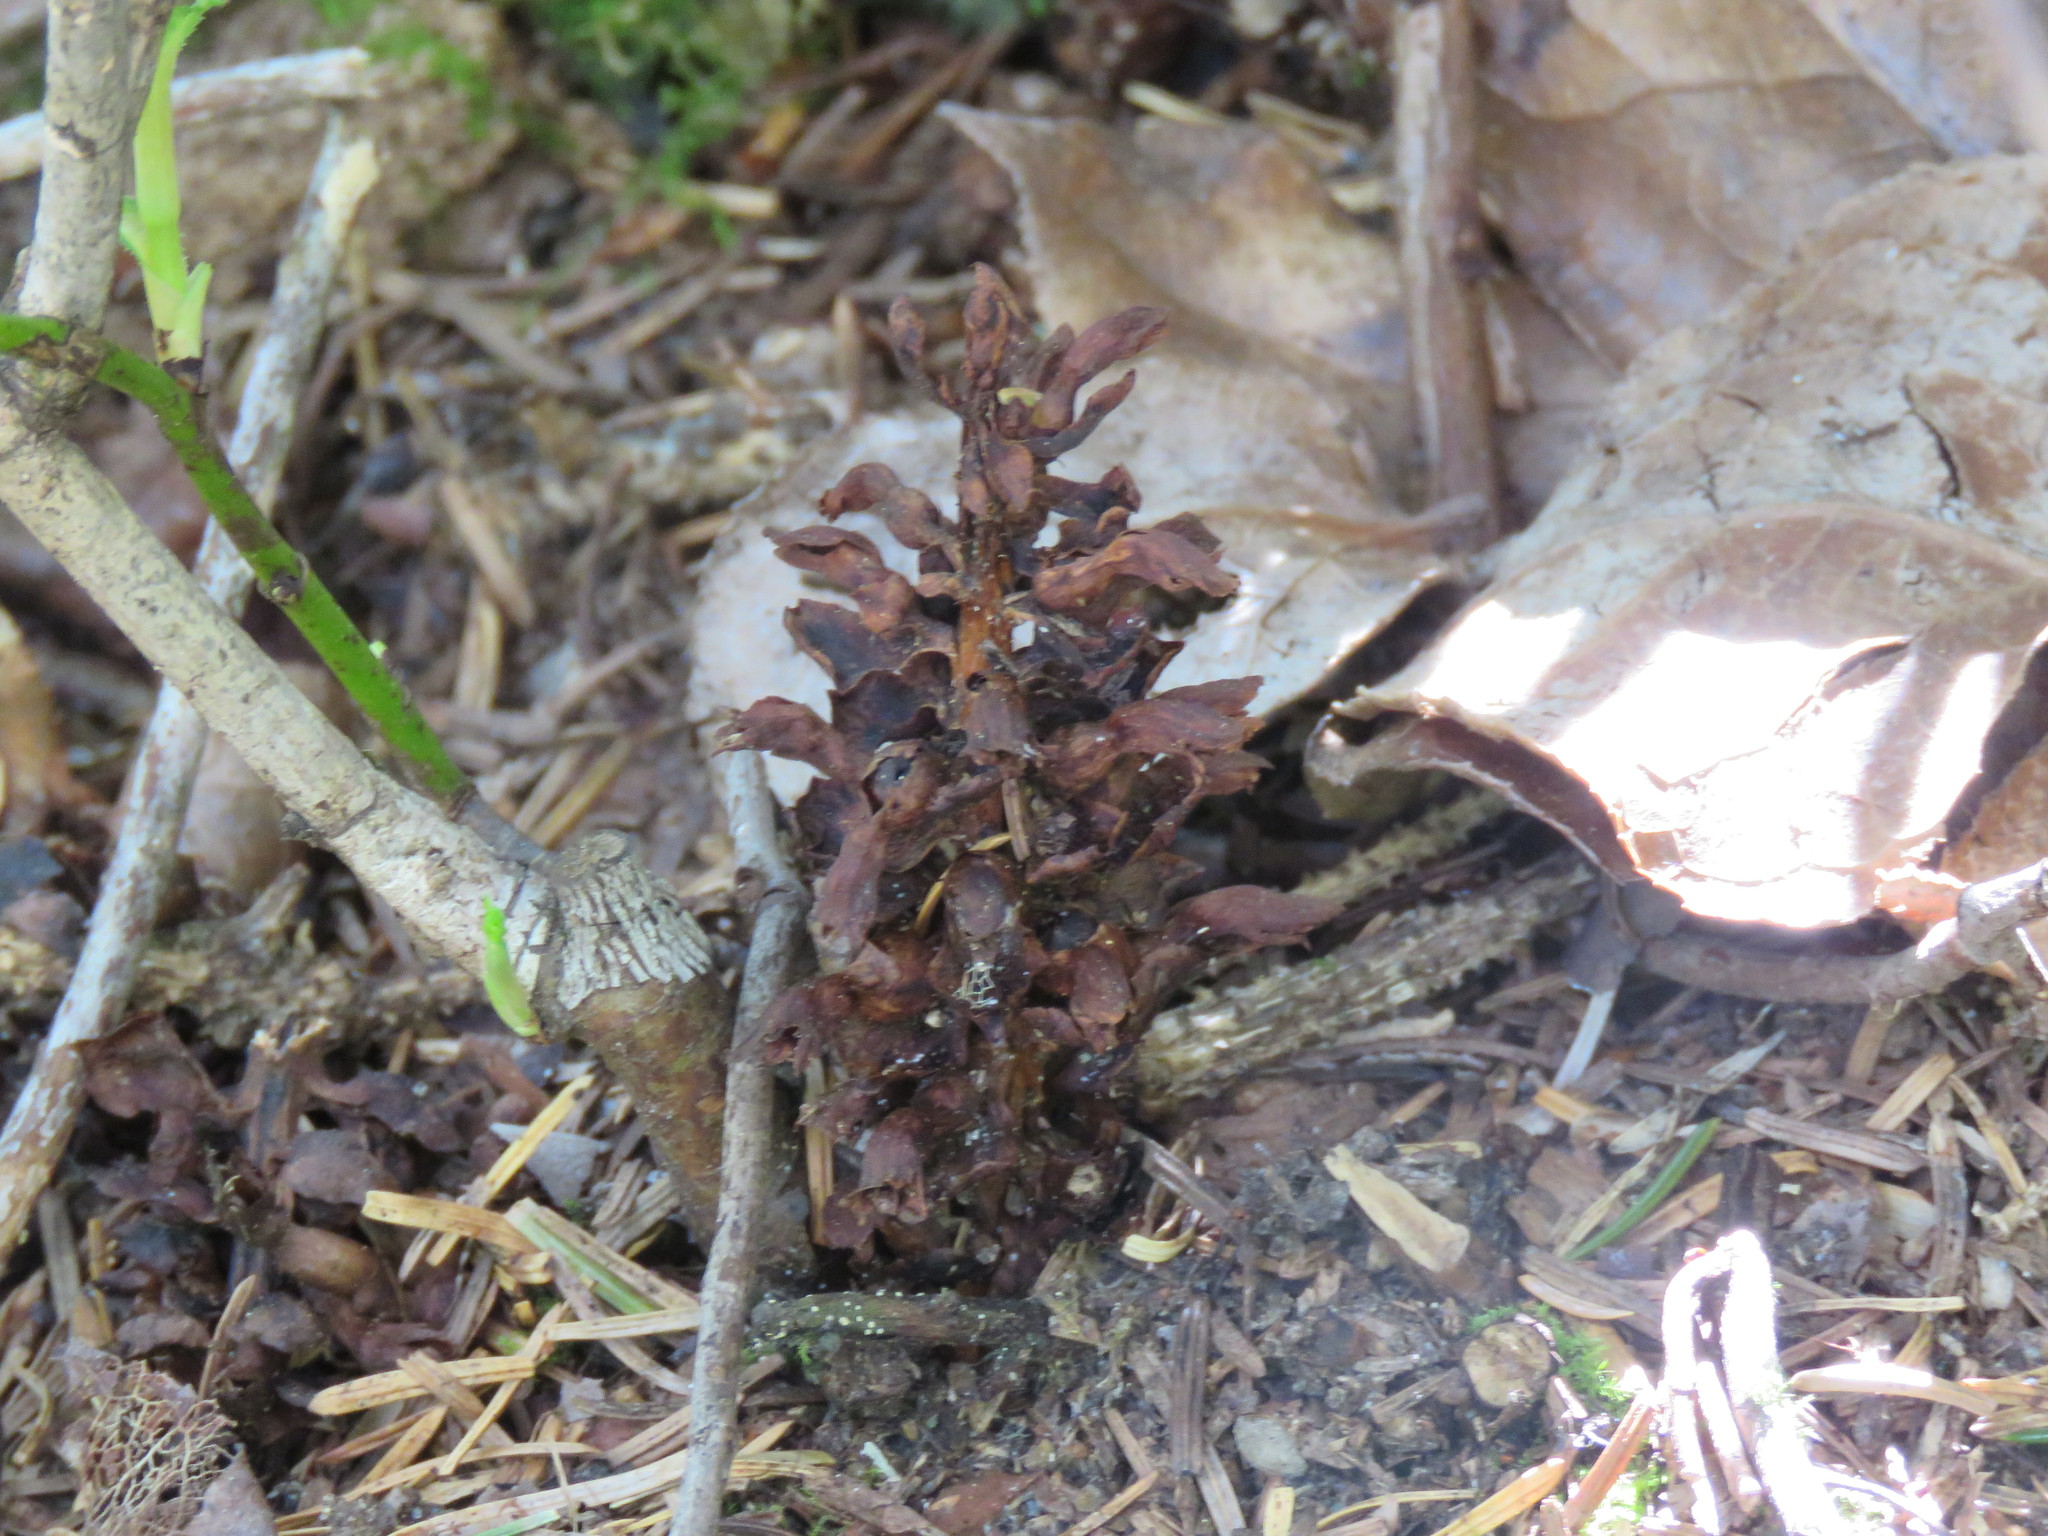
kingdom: Plantae
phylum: Tracheophyta
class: Magnoliopsida
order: Lamiales
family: Orobanchaceae
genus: Kopsiopsis
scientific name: Kopsiopsis hookeri
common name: Hooker's groundcone
